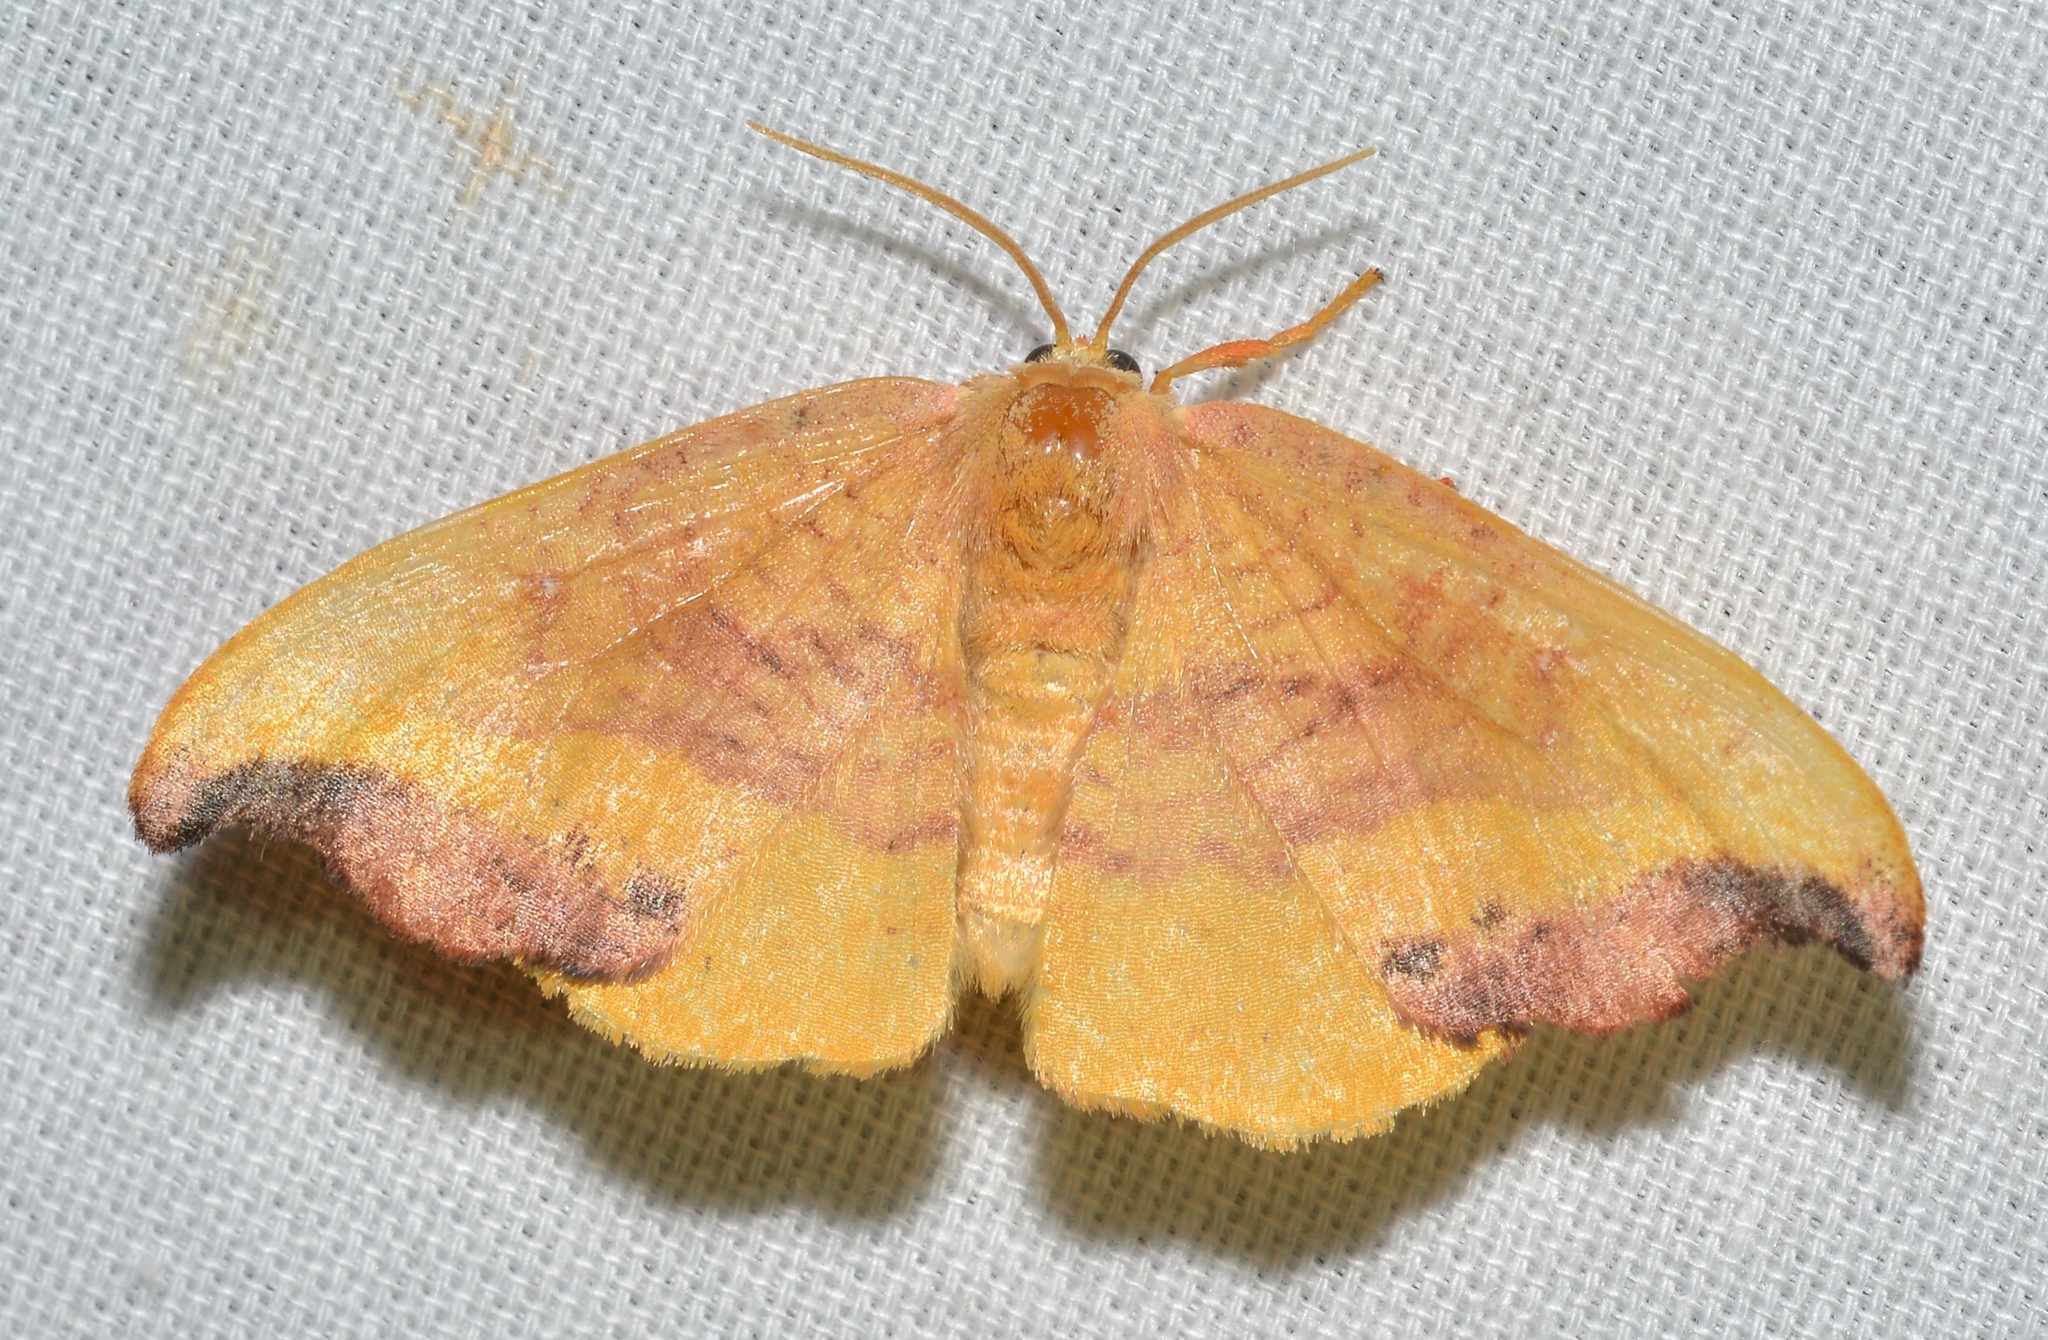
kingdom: Animalia
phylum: Arthropoda
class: Insecta
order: Lepidoptera
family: Drepanidae
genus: Oreta
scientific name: Oreta rosea
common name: Rose hooktip
